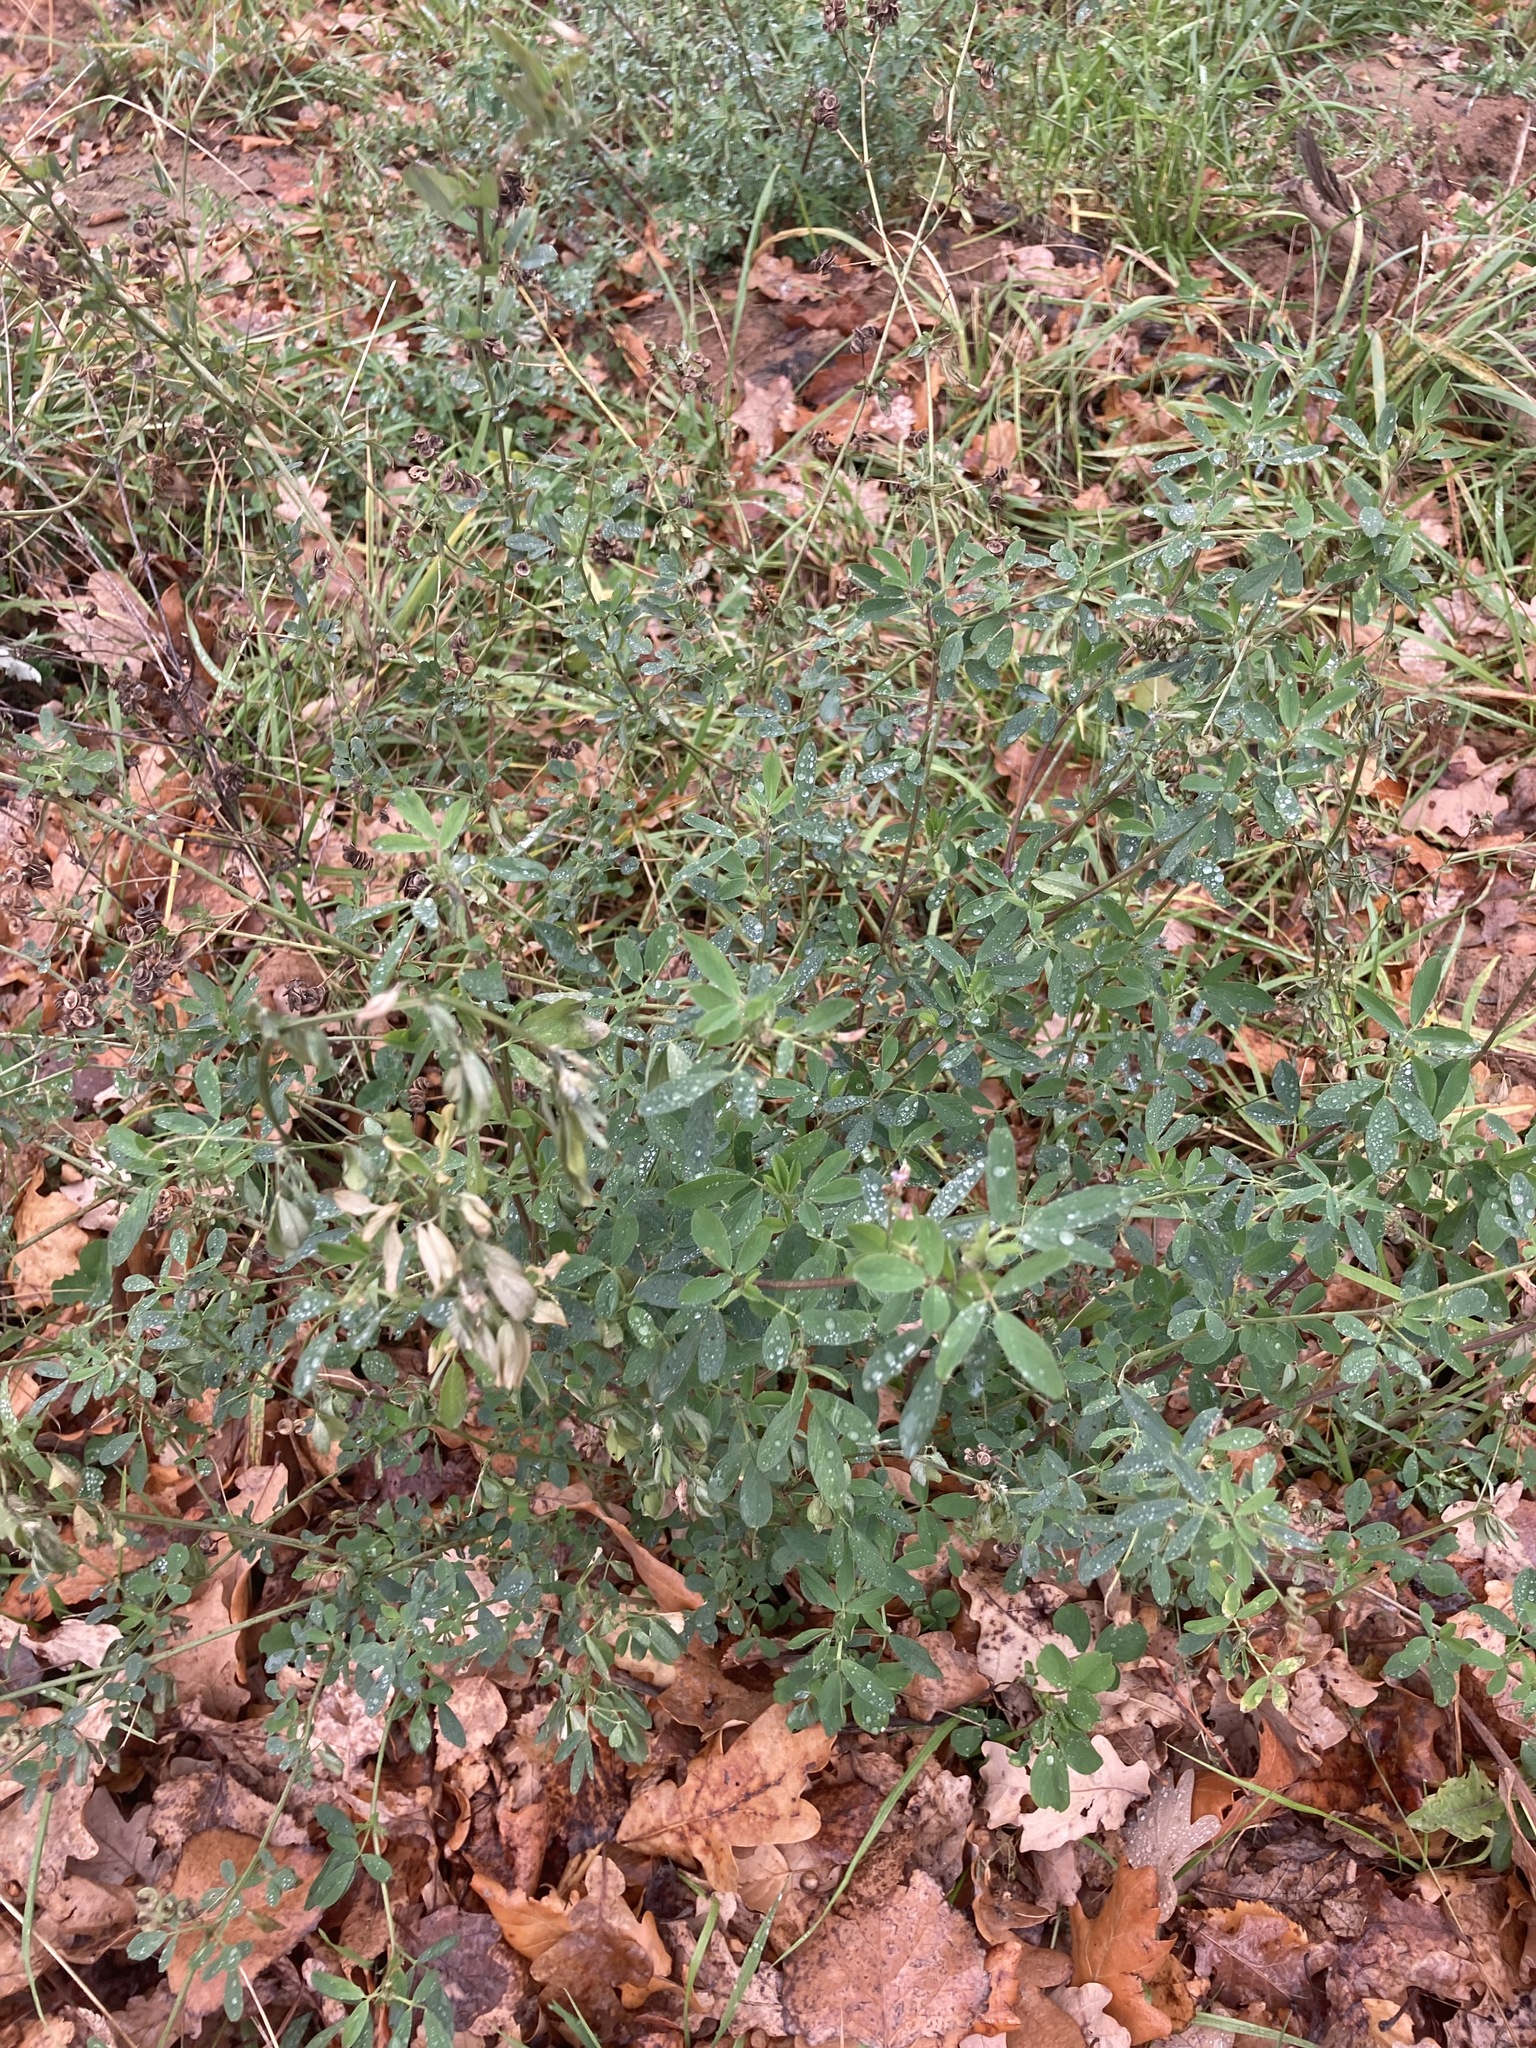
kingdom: Plantae
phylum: Tracheophyta
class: Magnoliopsida
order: Fabales
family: Fabaceae
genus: Medicago
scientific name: Medicago sativa
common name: Alfalfa
